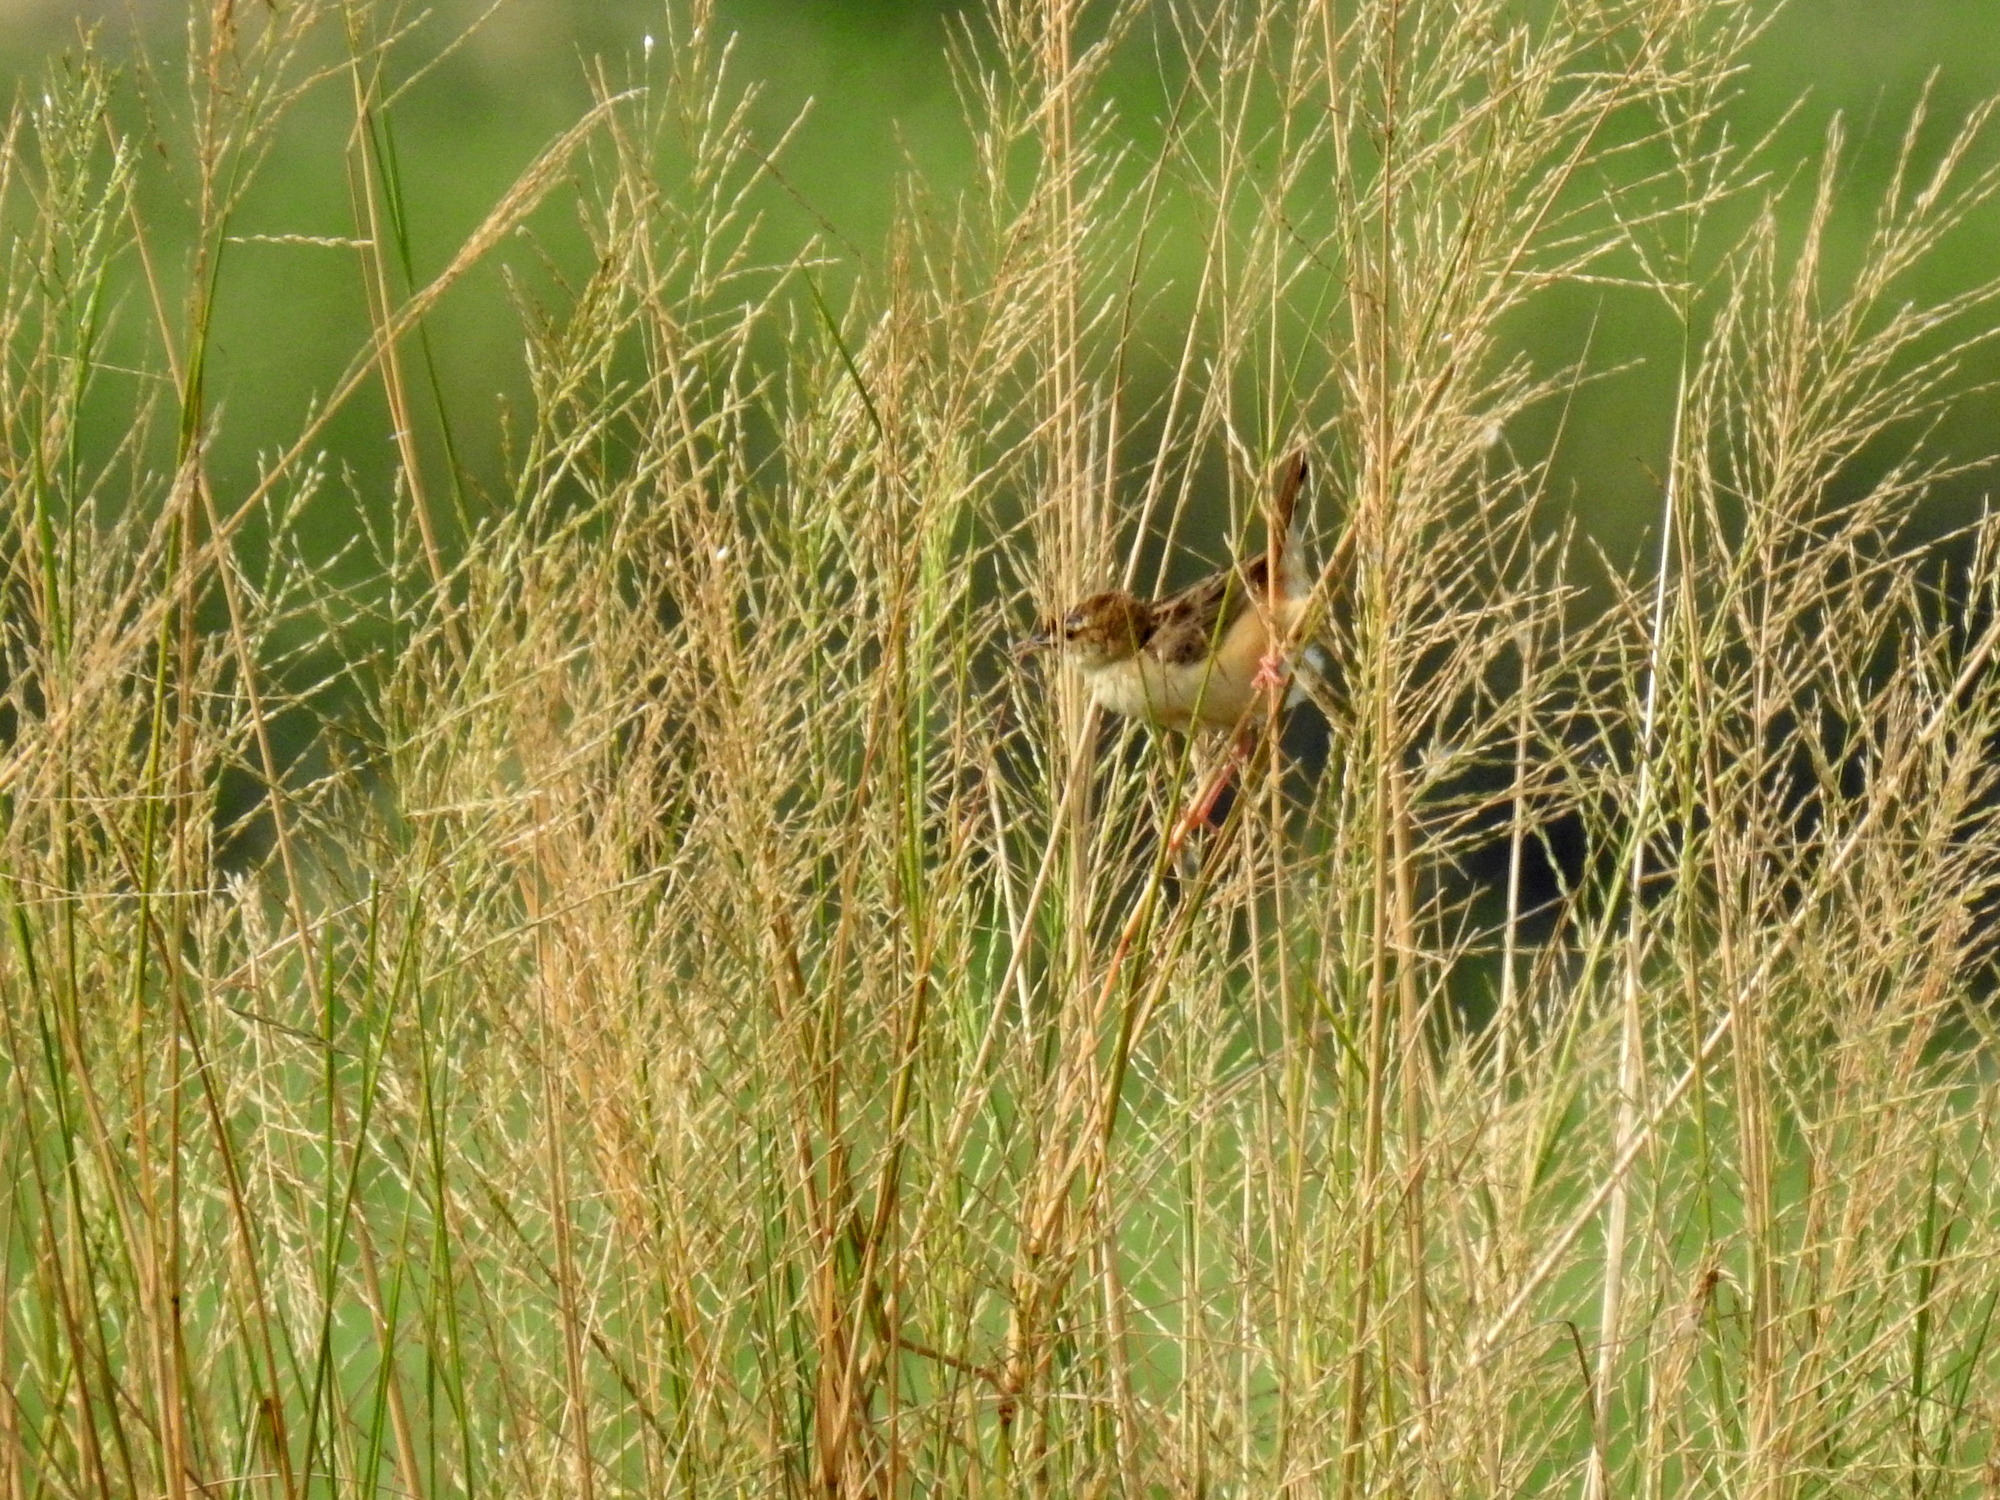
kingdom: Animalia
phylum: Chordata
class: Aves
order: Passeriformes
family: Cisticolidae
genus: Cisticola
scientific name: Cisticola juncidis
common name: Zitting cisticola
